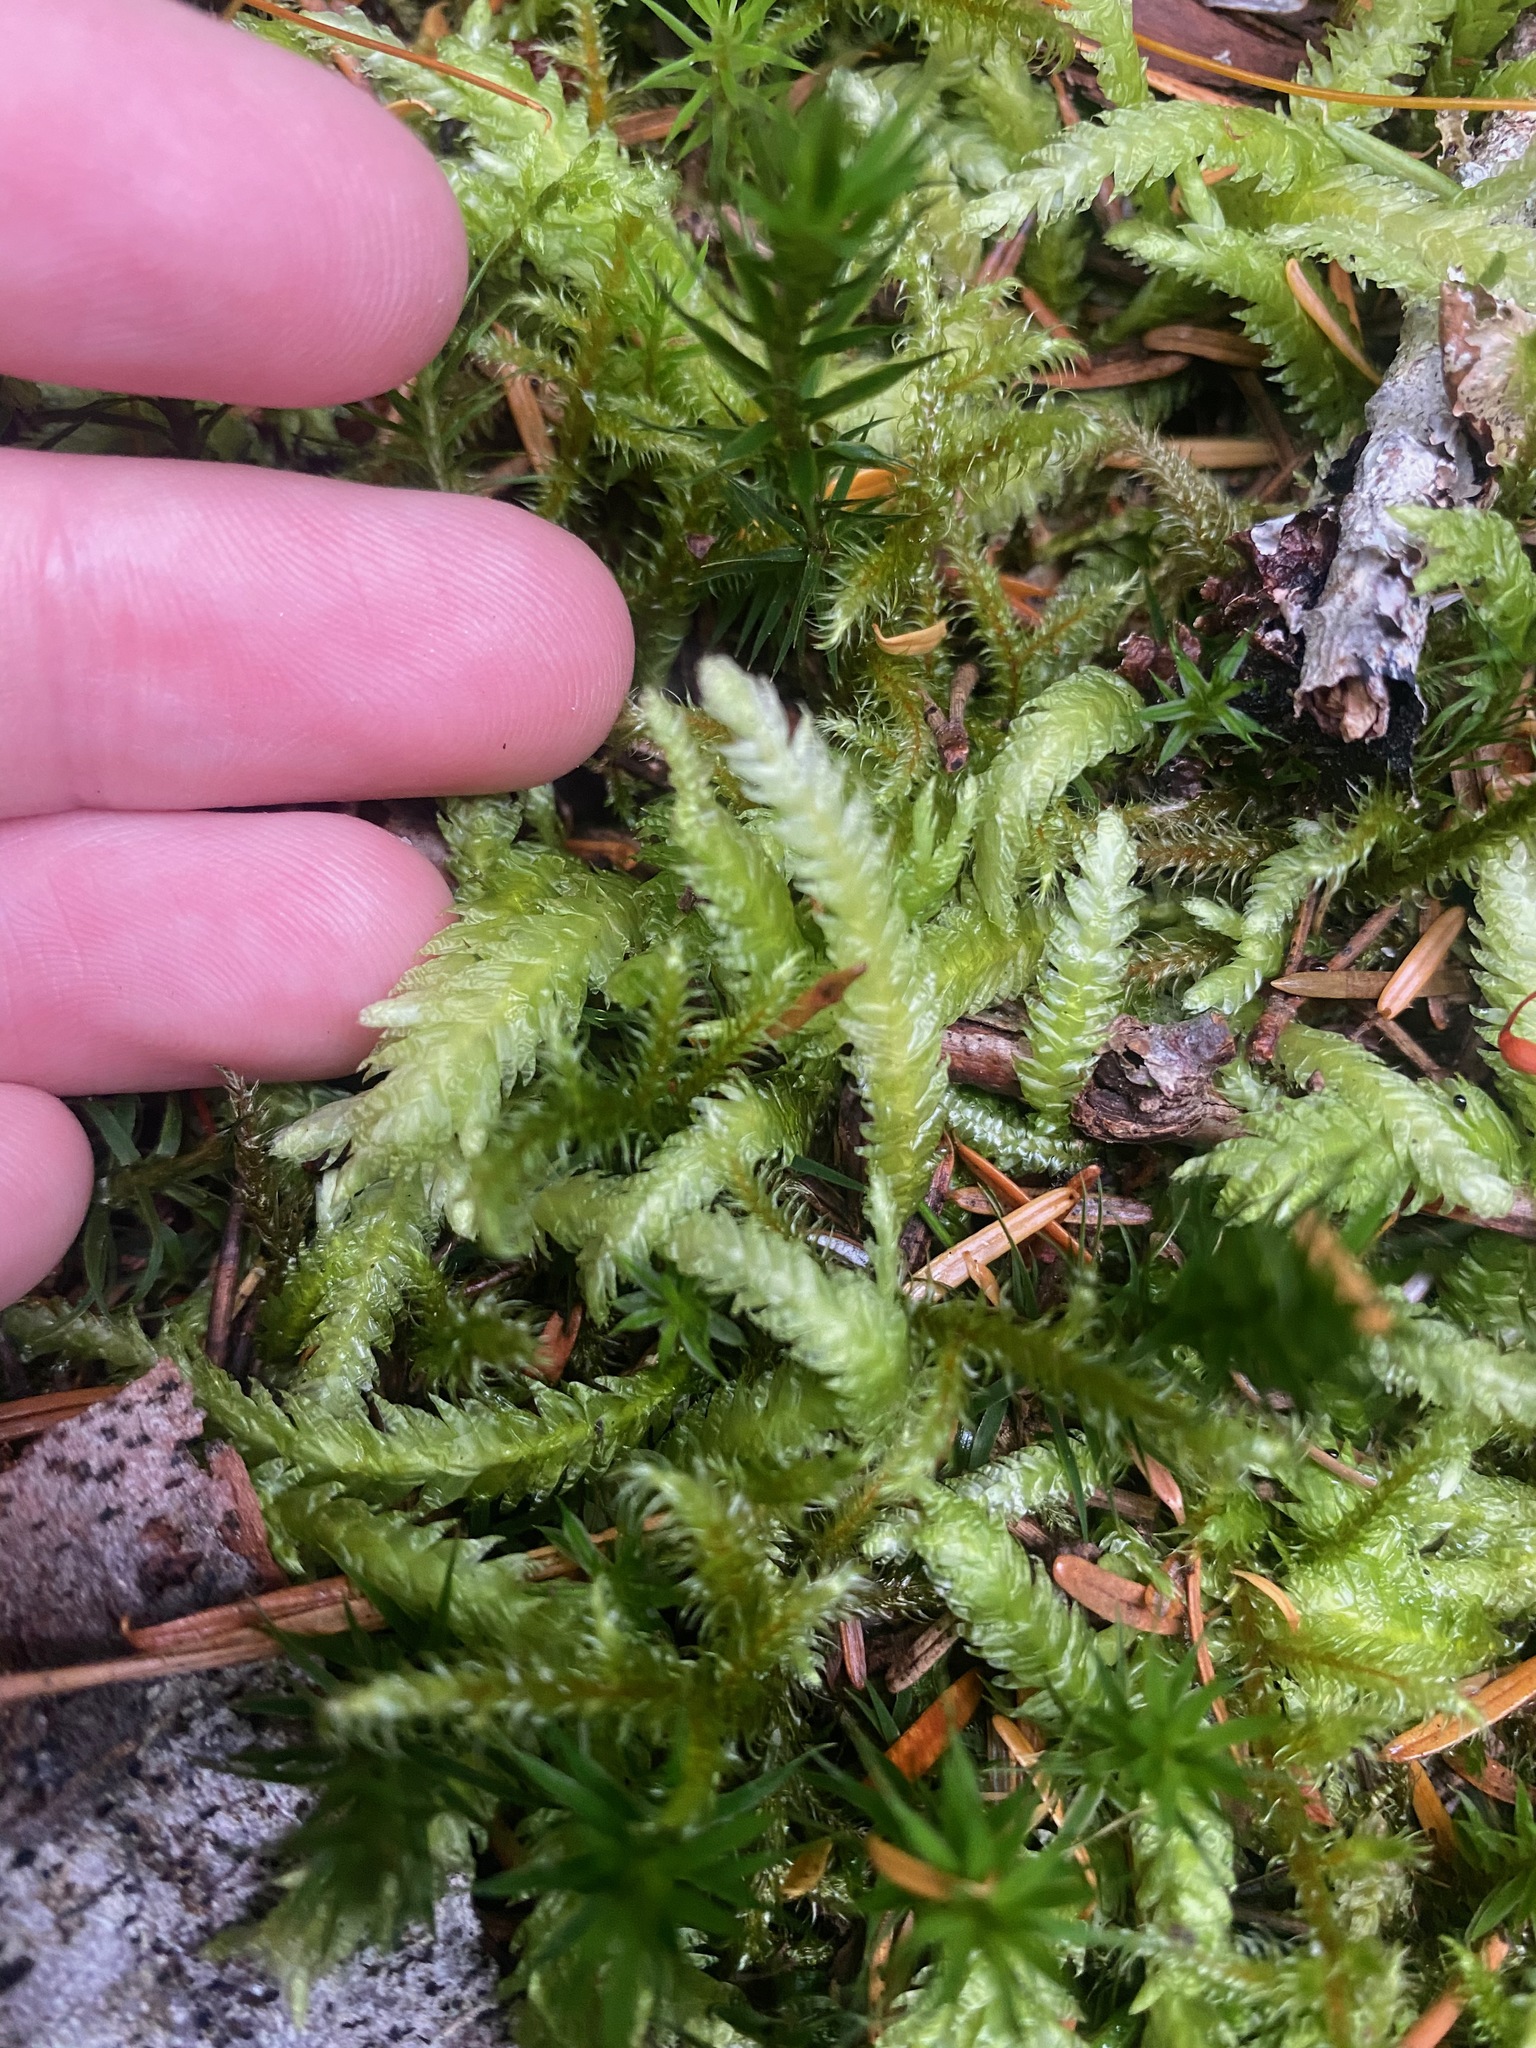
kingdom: Plantae
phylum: Bryophyta
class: Bryopsida
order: Hypnales
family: Plagiotheciaceae
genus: Plagiothecium
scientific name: Plagiothecium undulatum
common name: Waved silk-moss
